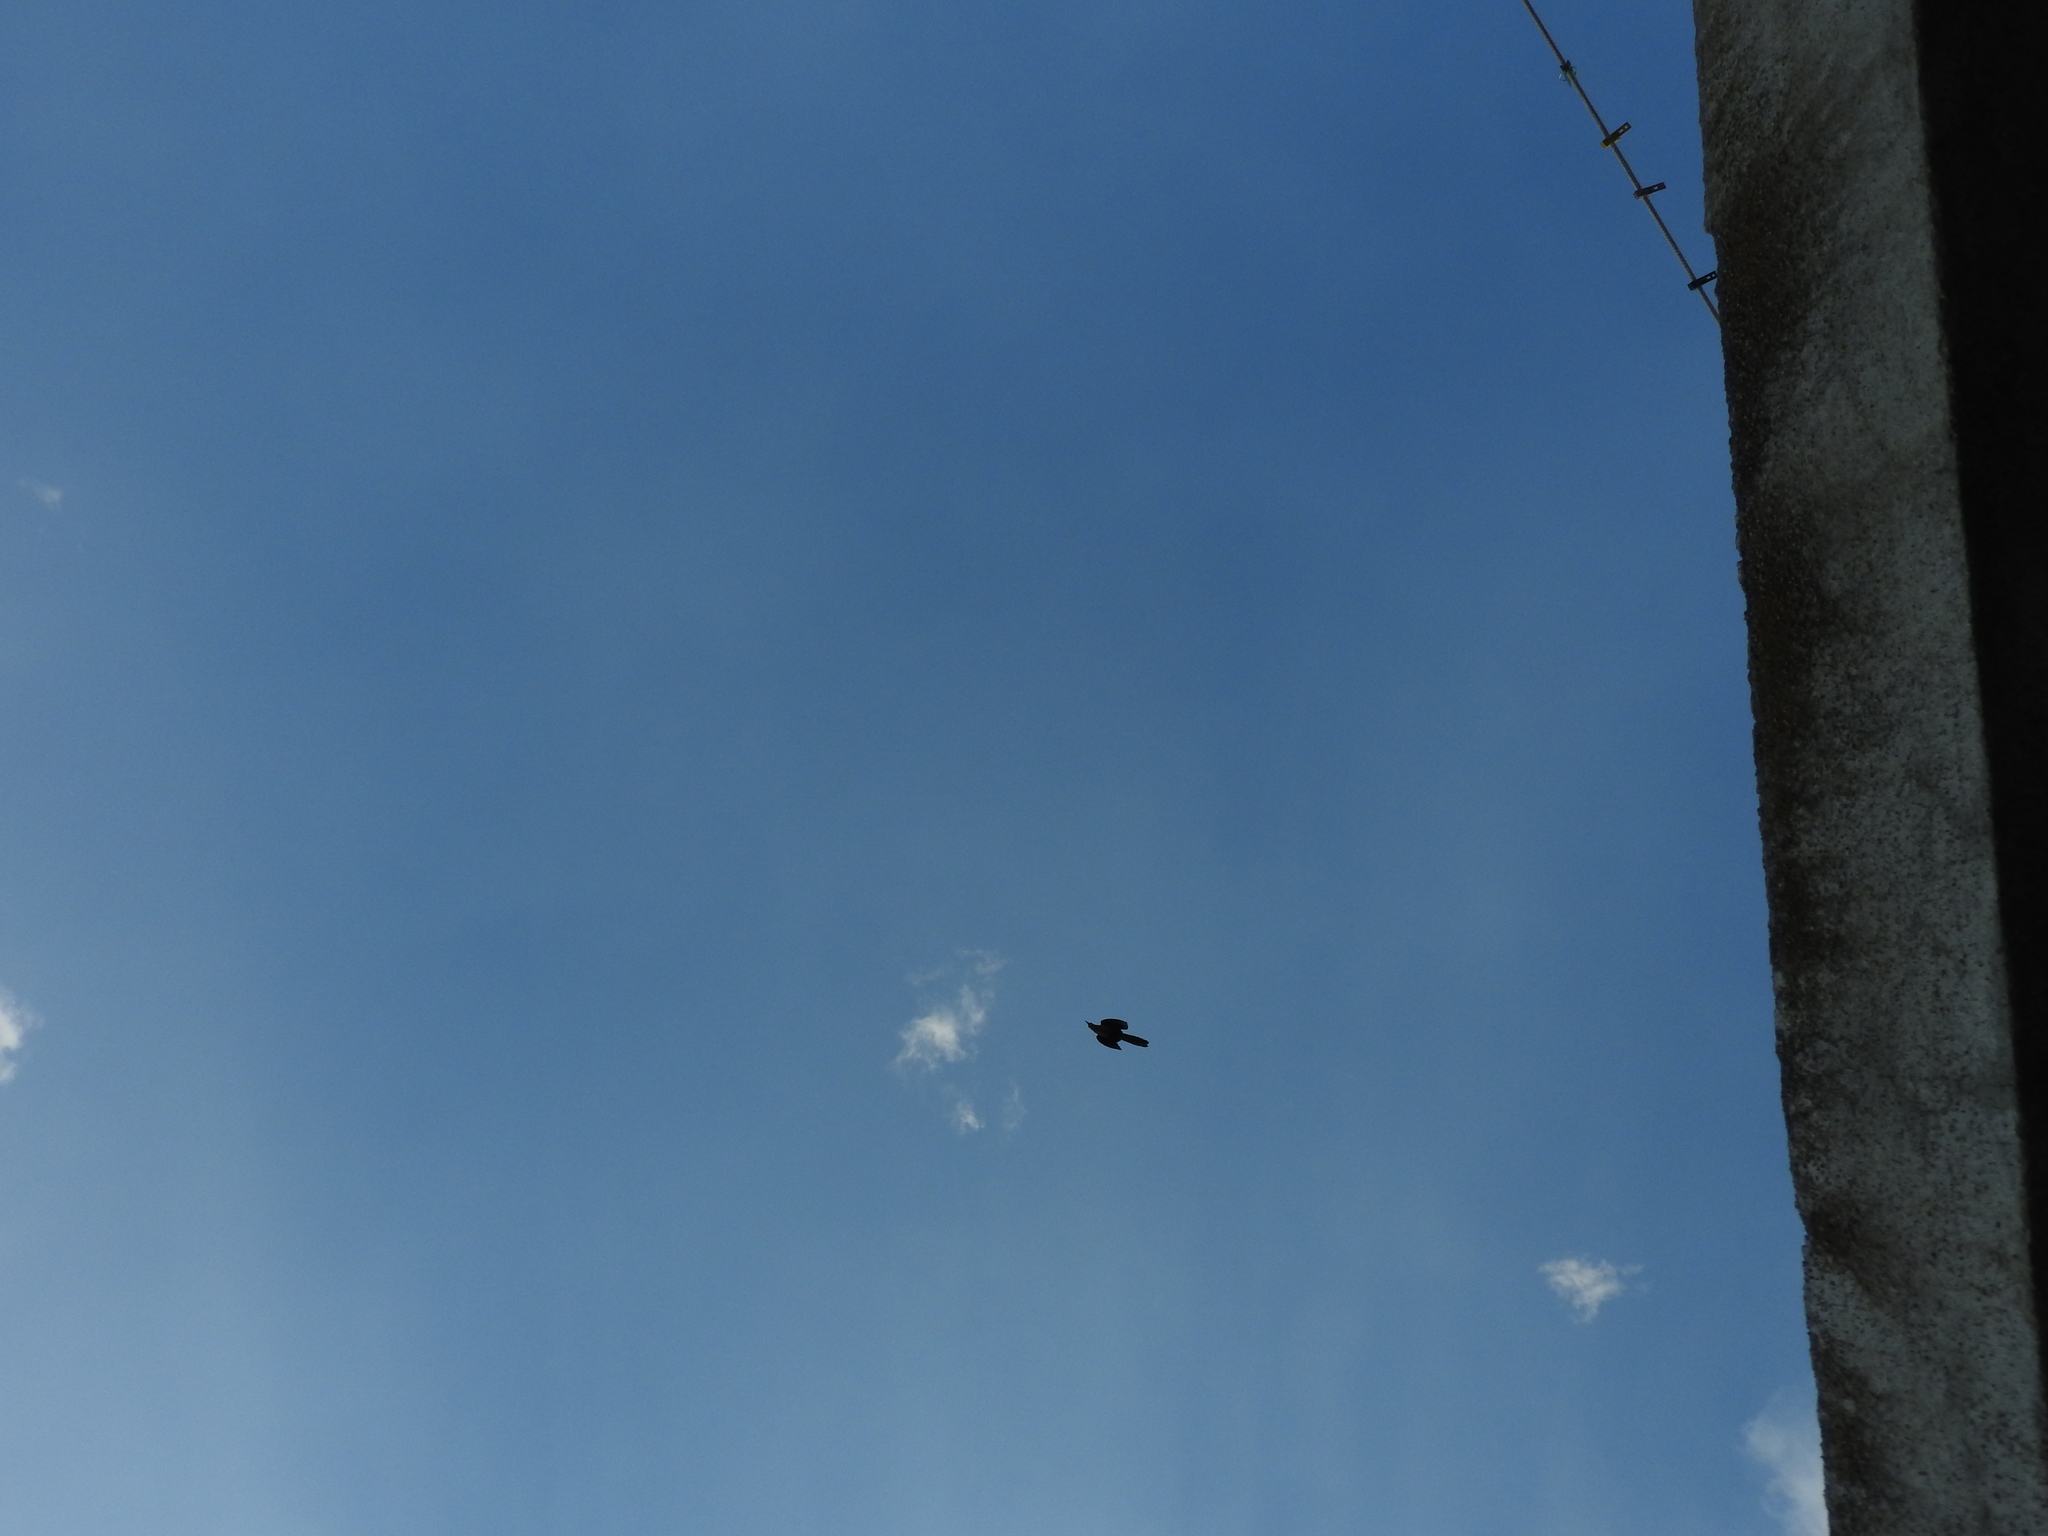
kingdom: Animalia
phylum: Chordata
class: Aves
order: Passeriformes
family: Icteridae
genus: Quiscalus
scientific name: Quiscalus mexicanus
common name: Great-tailed grackle
